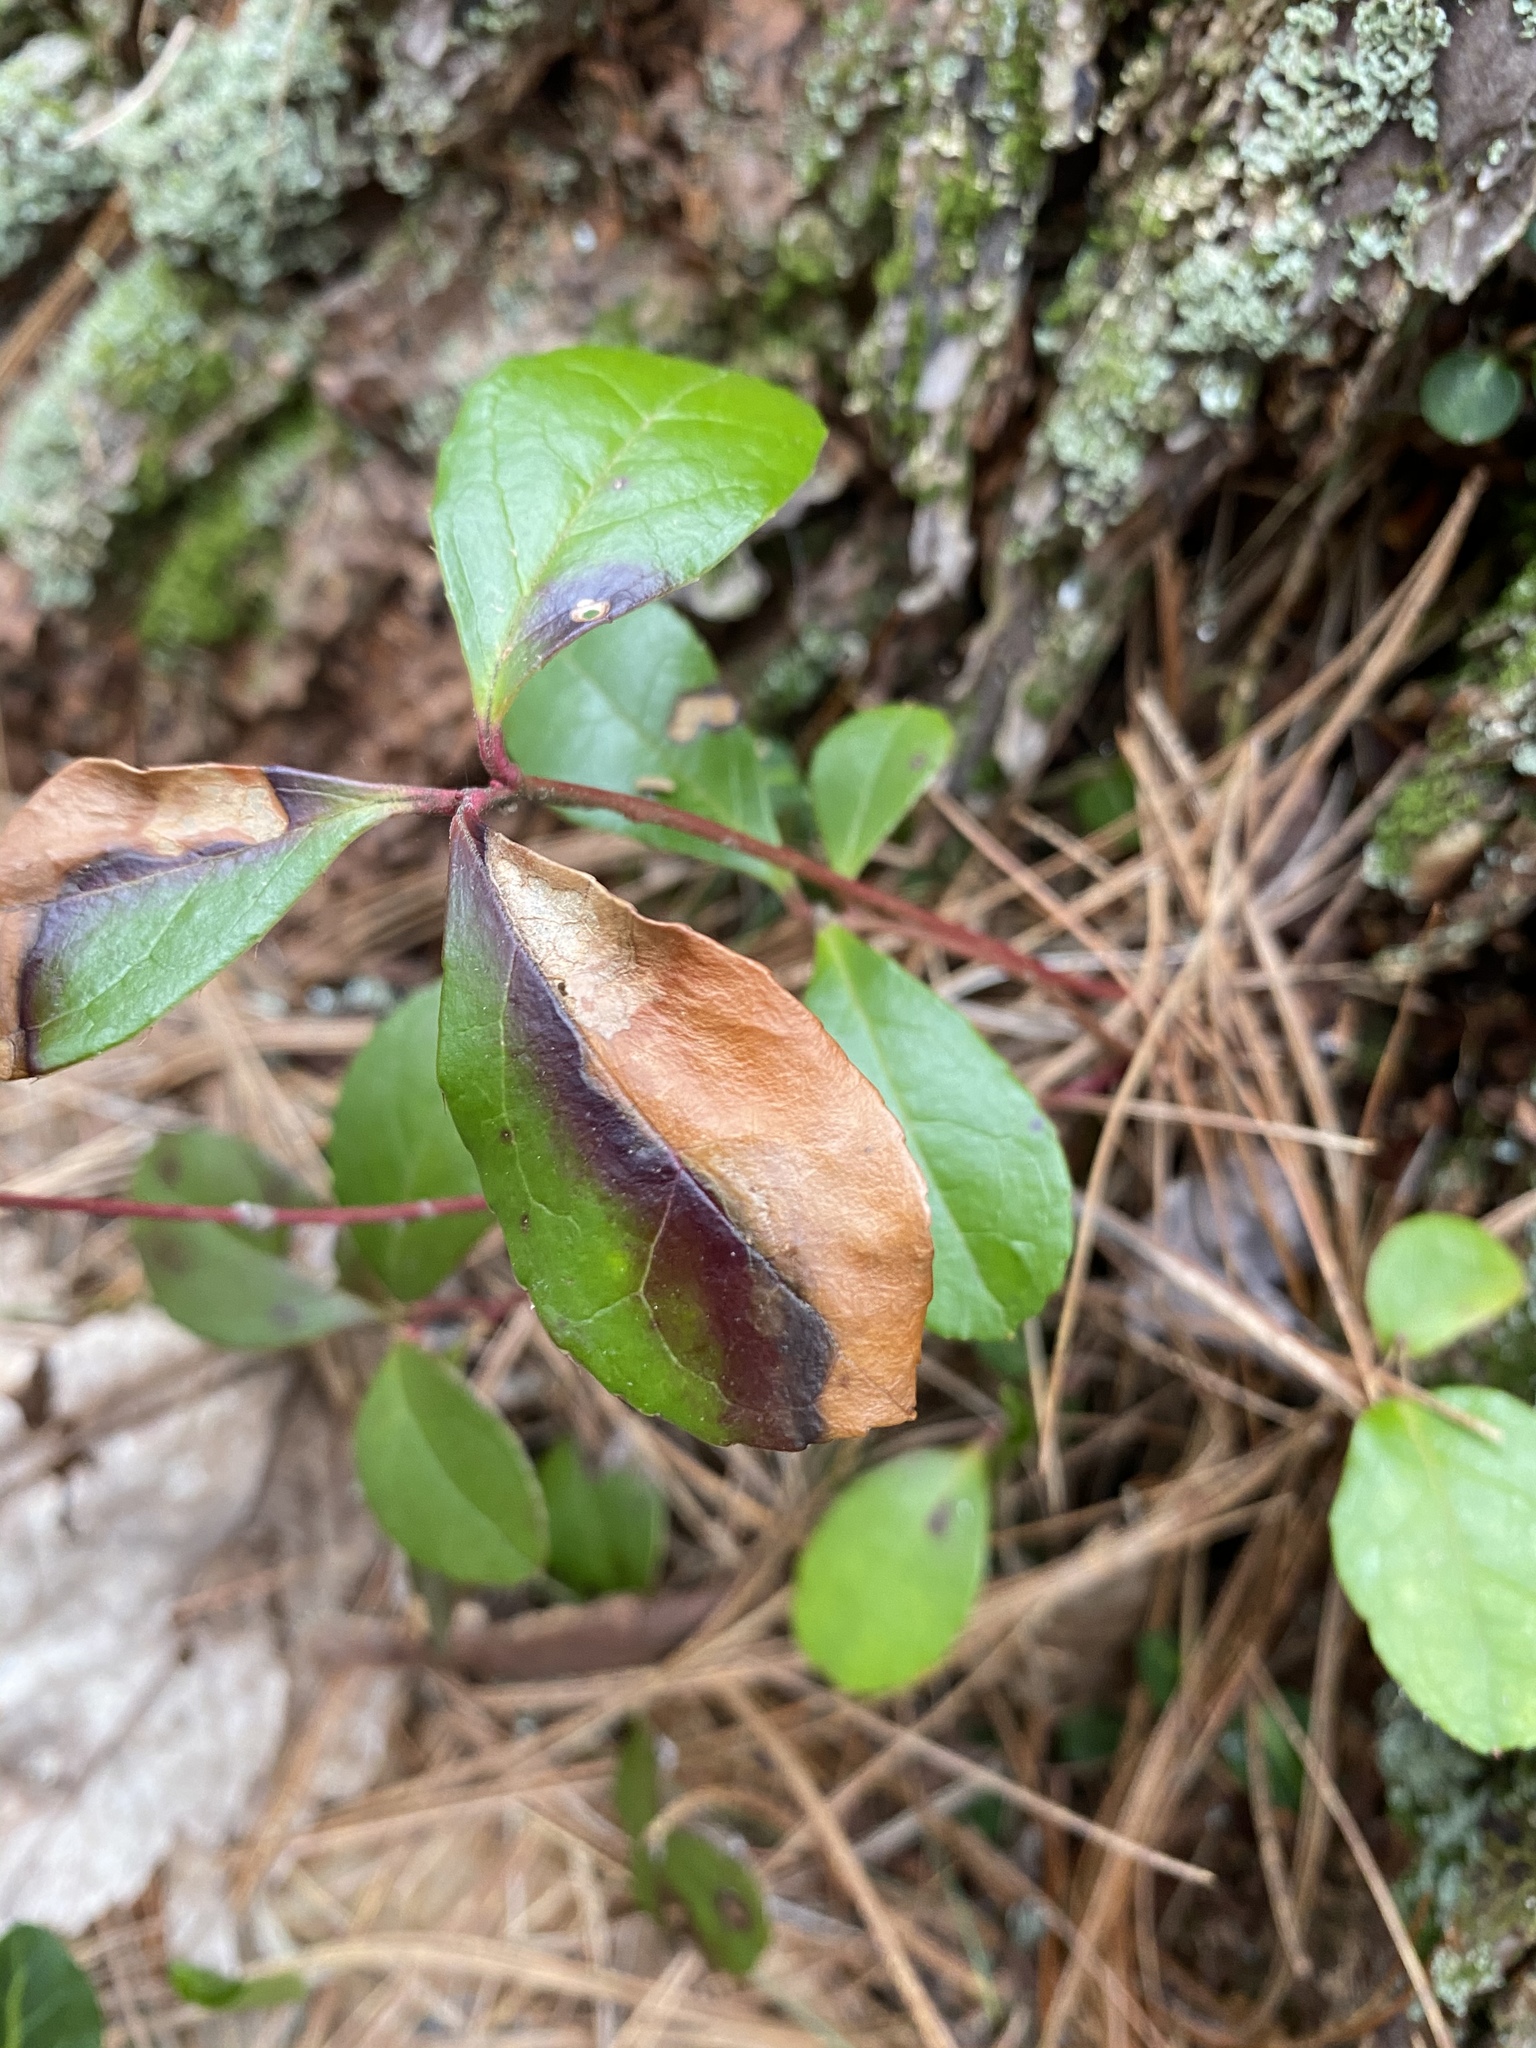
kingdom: Plantae
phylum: Tracheophyta
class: Magnoliopsida
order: Ericales
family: Ericaceae
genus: Gaultheria
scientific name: Gaultheria procumbens
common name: Checkerberry
